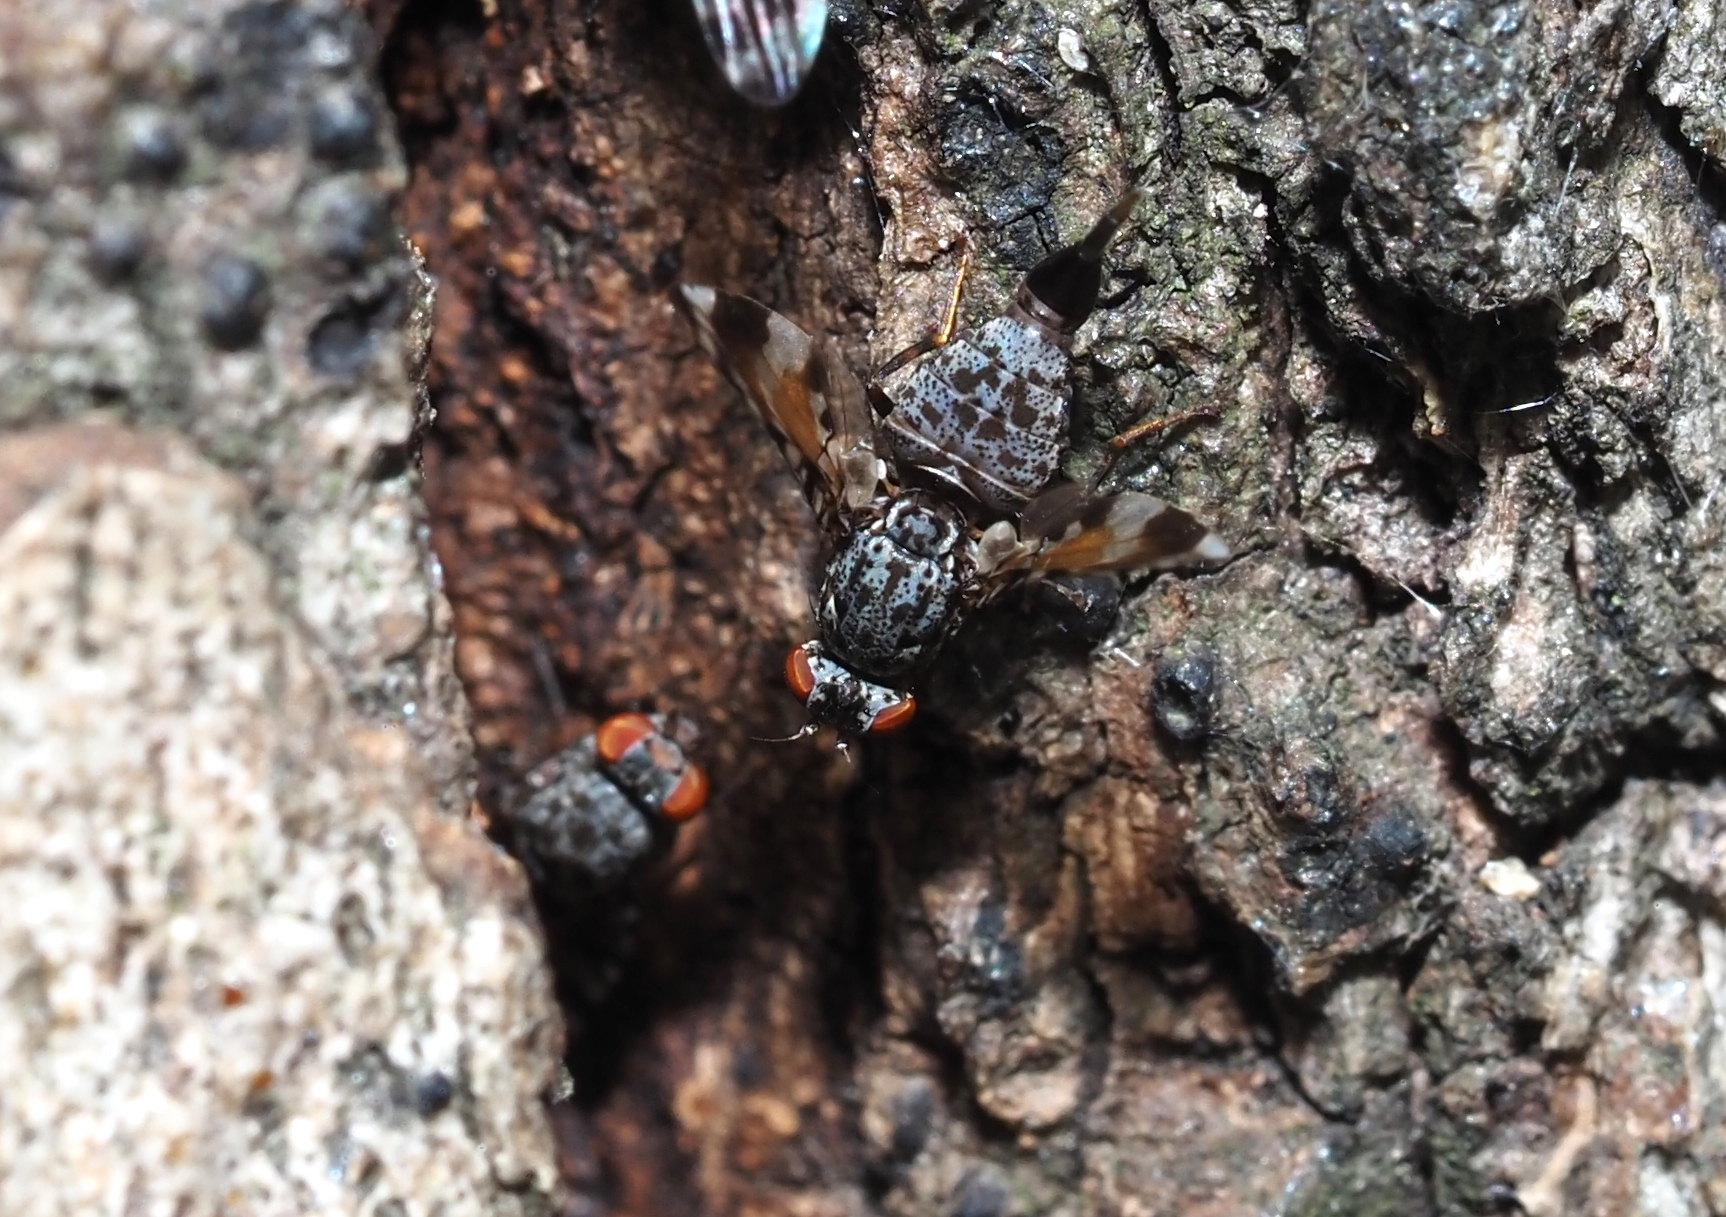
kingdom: Animalia
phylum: Arthropoda
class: Insecta
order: Diptera
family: Ulidiidae
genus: Pseudotephritis
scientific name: Pseudotephritis vau
